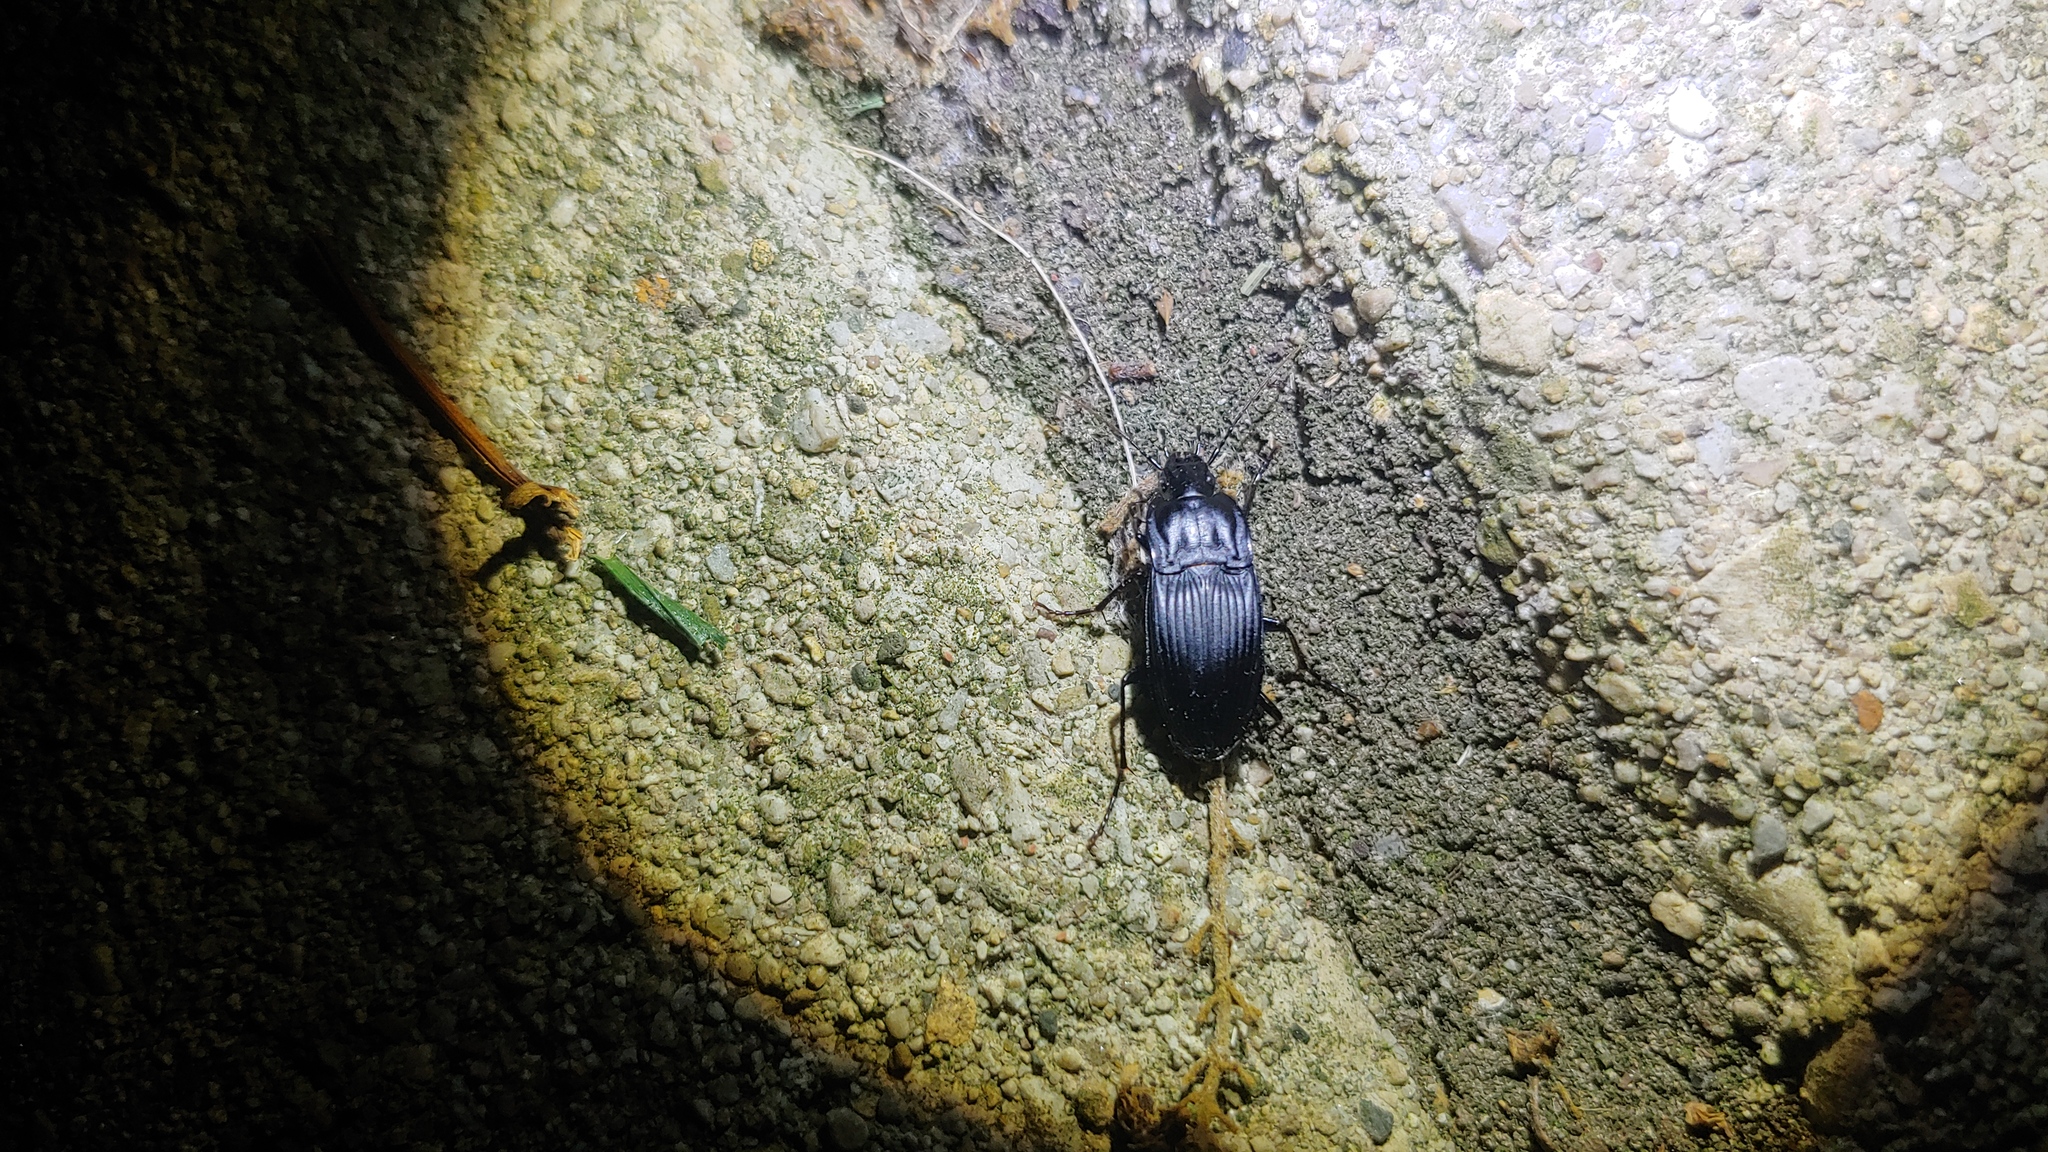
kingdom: Animalia
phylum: Arthropoda
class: Insecta
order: Coleoptera
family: Carabidae
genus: Dicaelus
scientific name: Dicaelus elongatus
